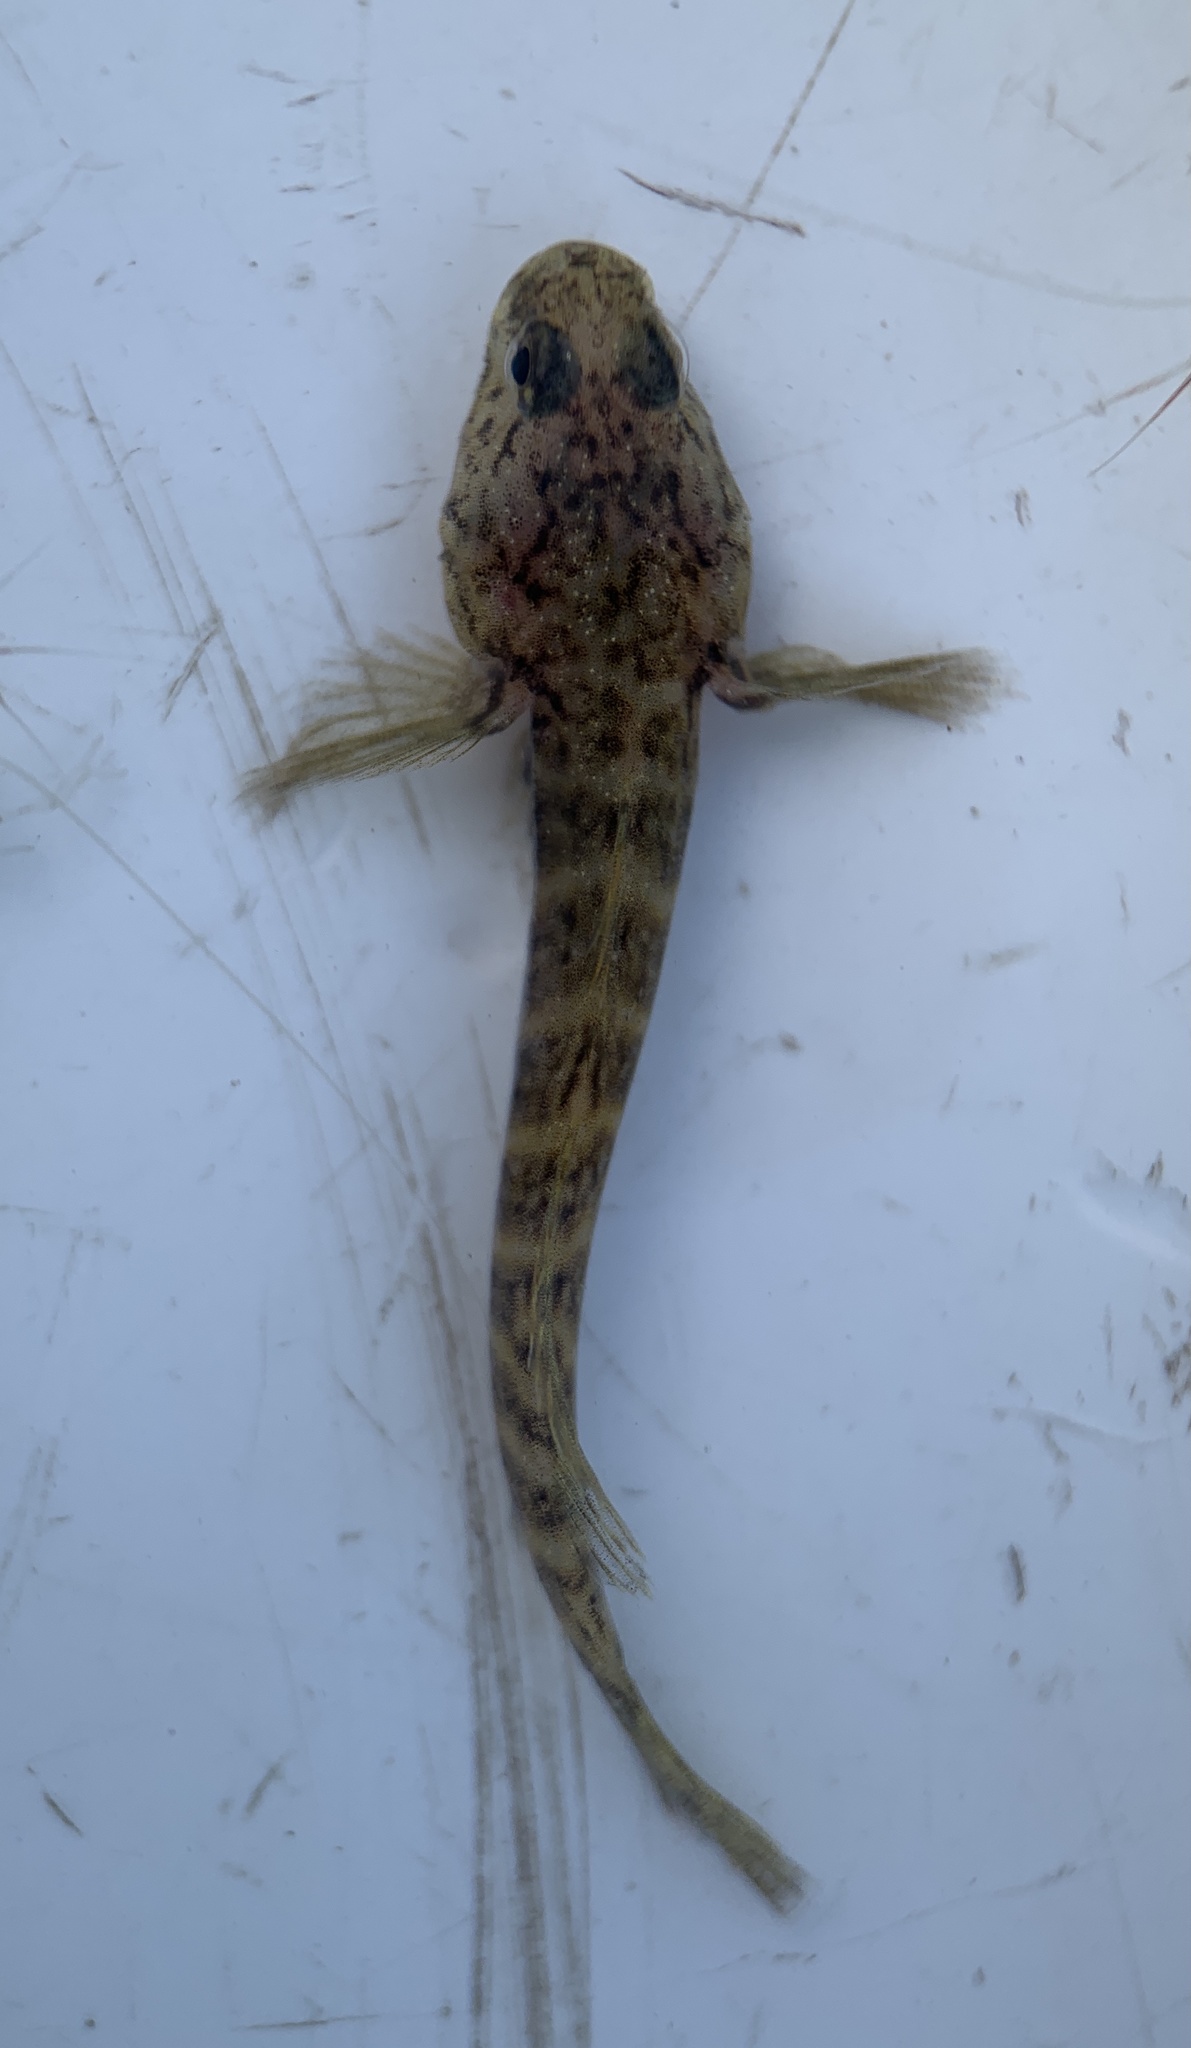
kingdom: Animalia
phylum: Chordata
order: Perciformes
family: Gobiidae
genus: Gobiosoma
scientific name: Gobiosoma bosc
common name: Naked goby
